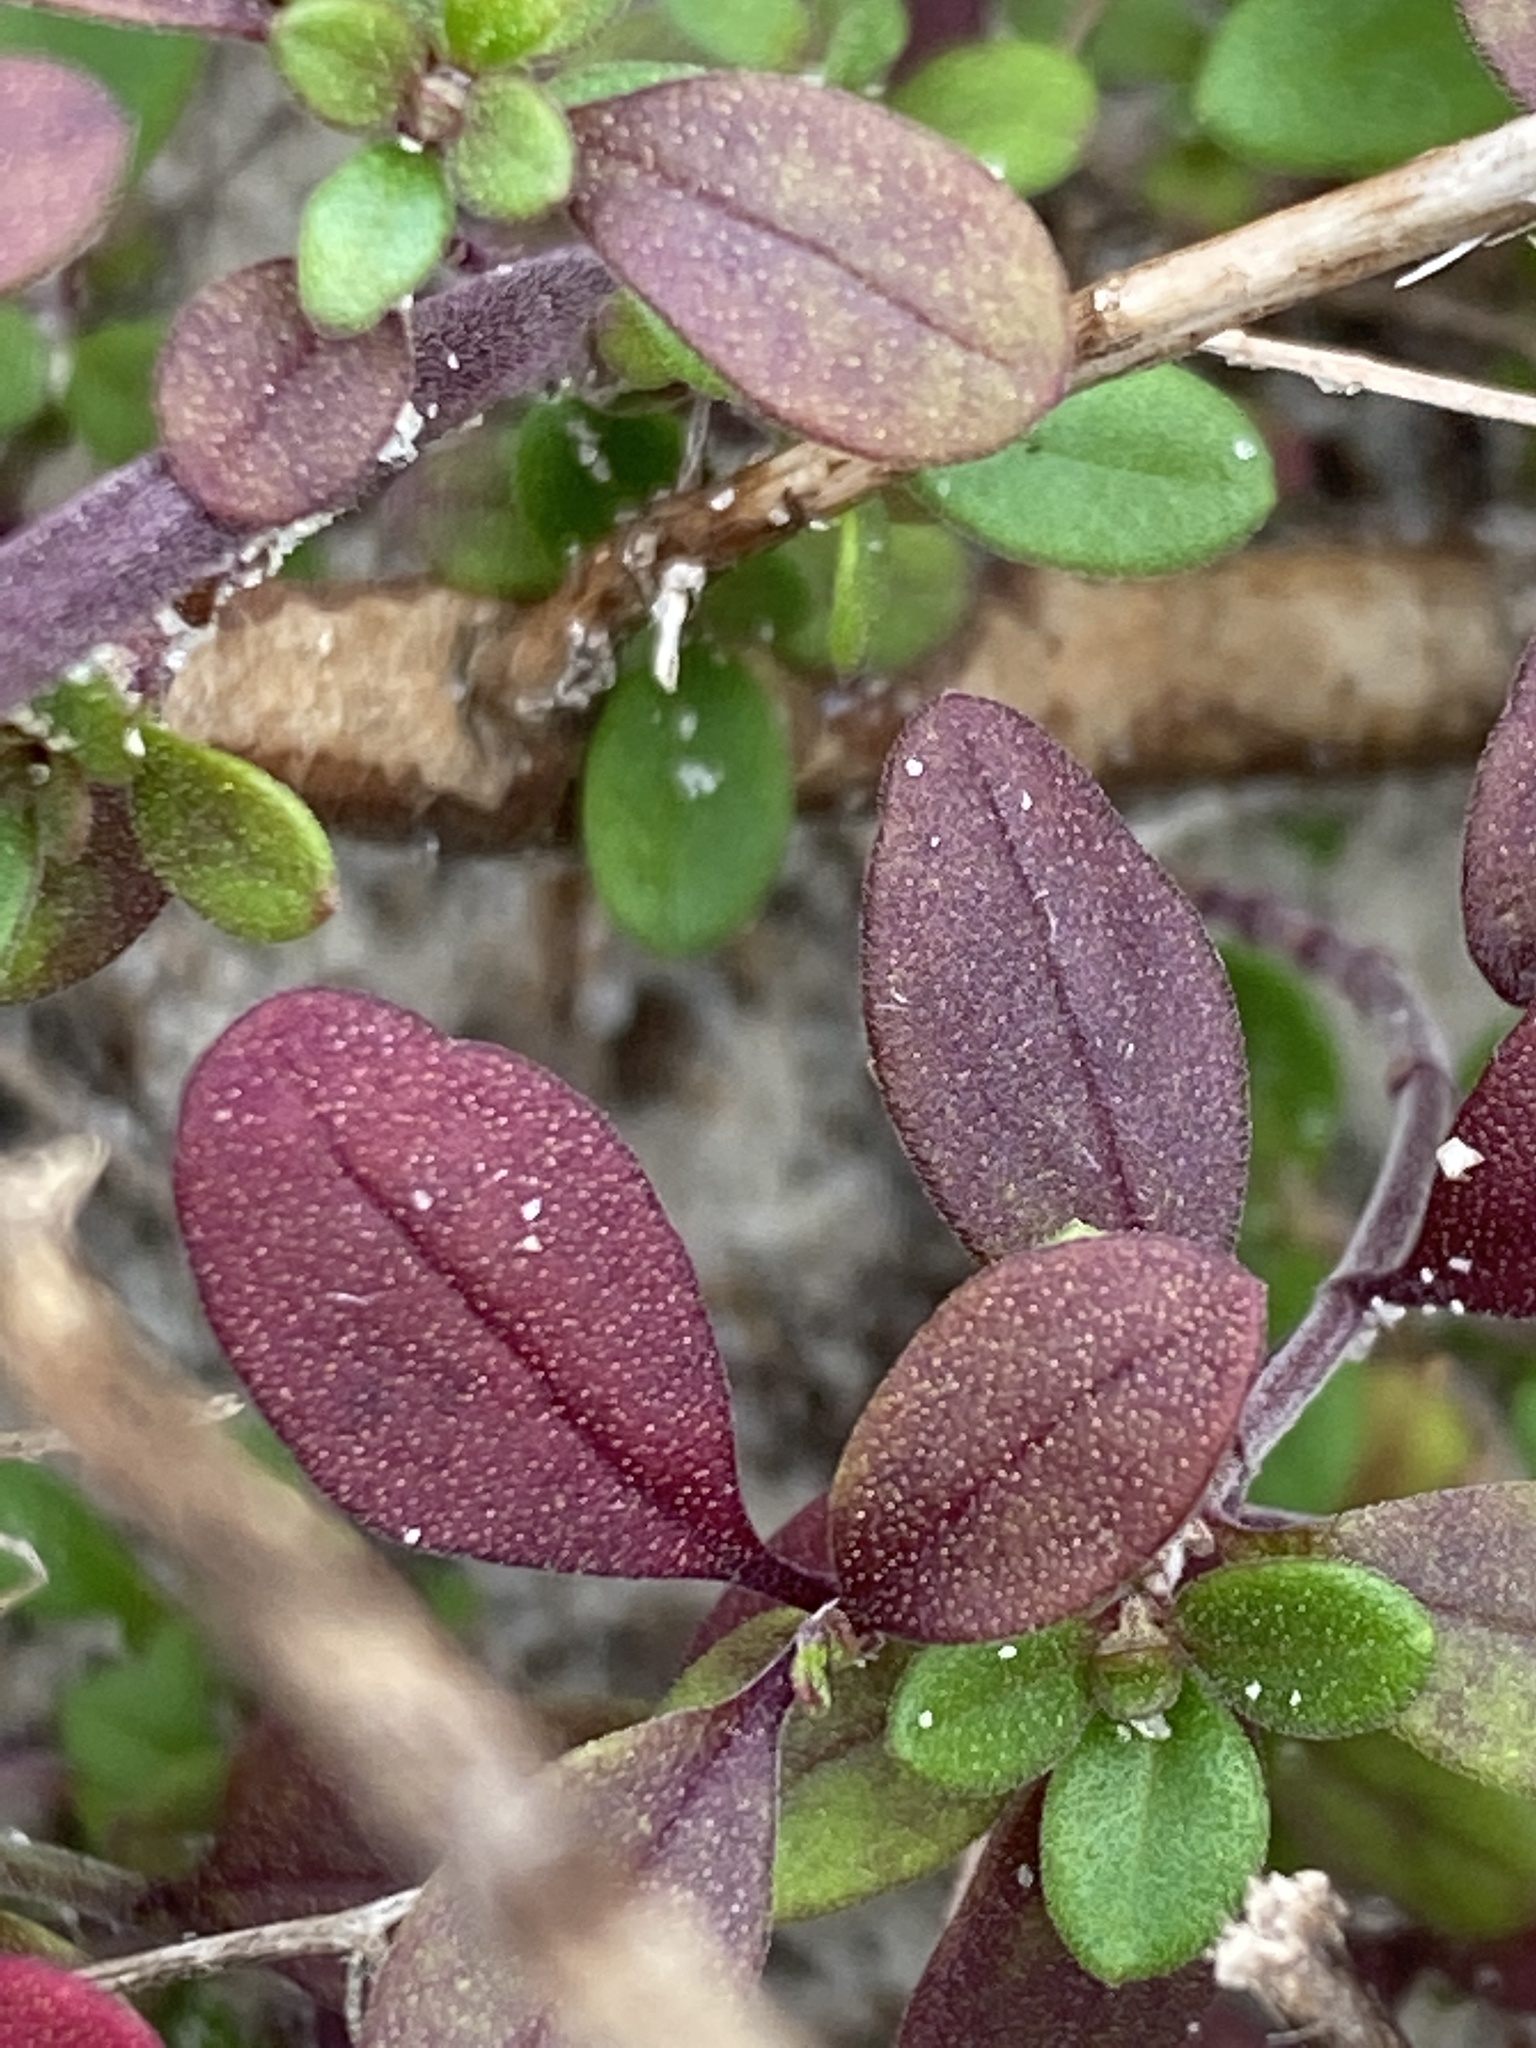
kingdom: Plantae
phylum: Tracheophyta
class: Magnoliopsida
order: Lamiales
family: Lamiaceae
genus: Trichostema
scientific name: Trichostema nesophilum
